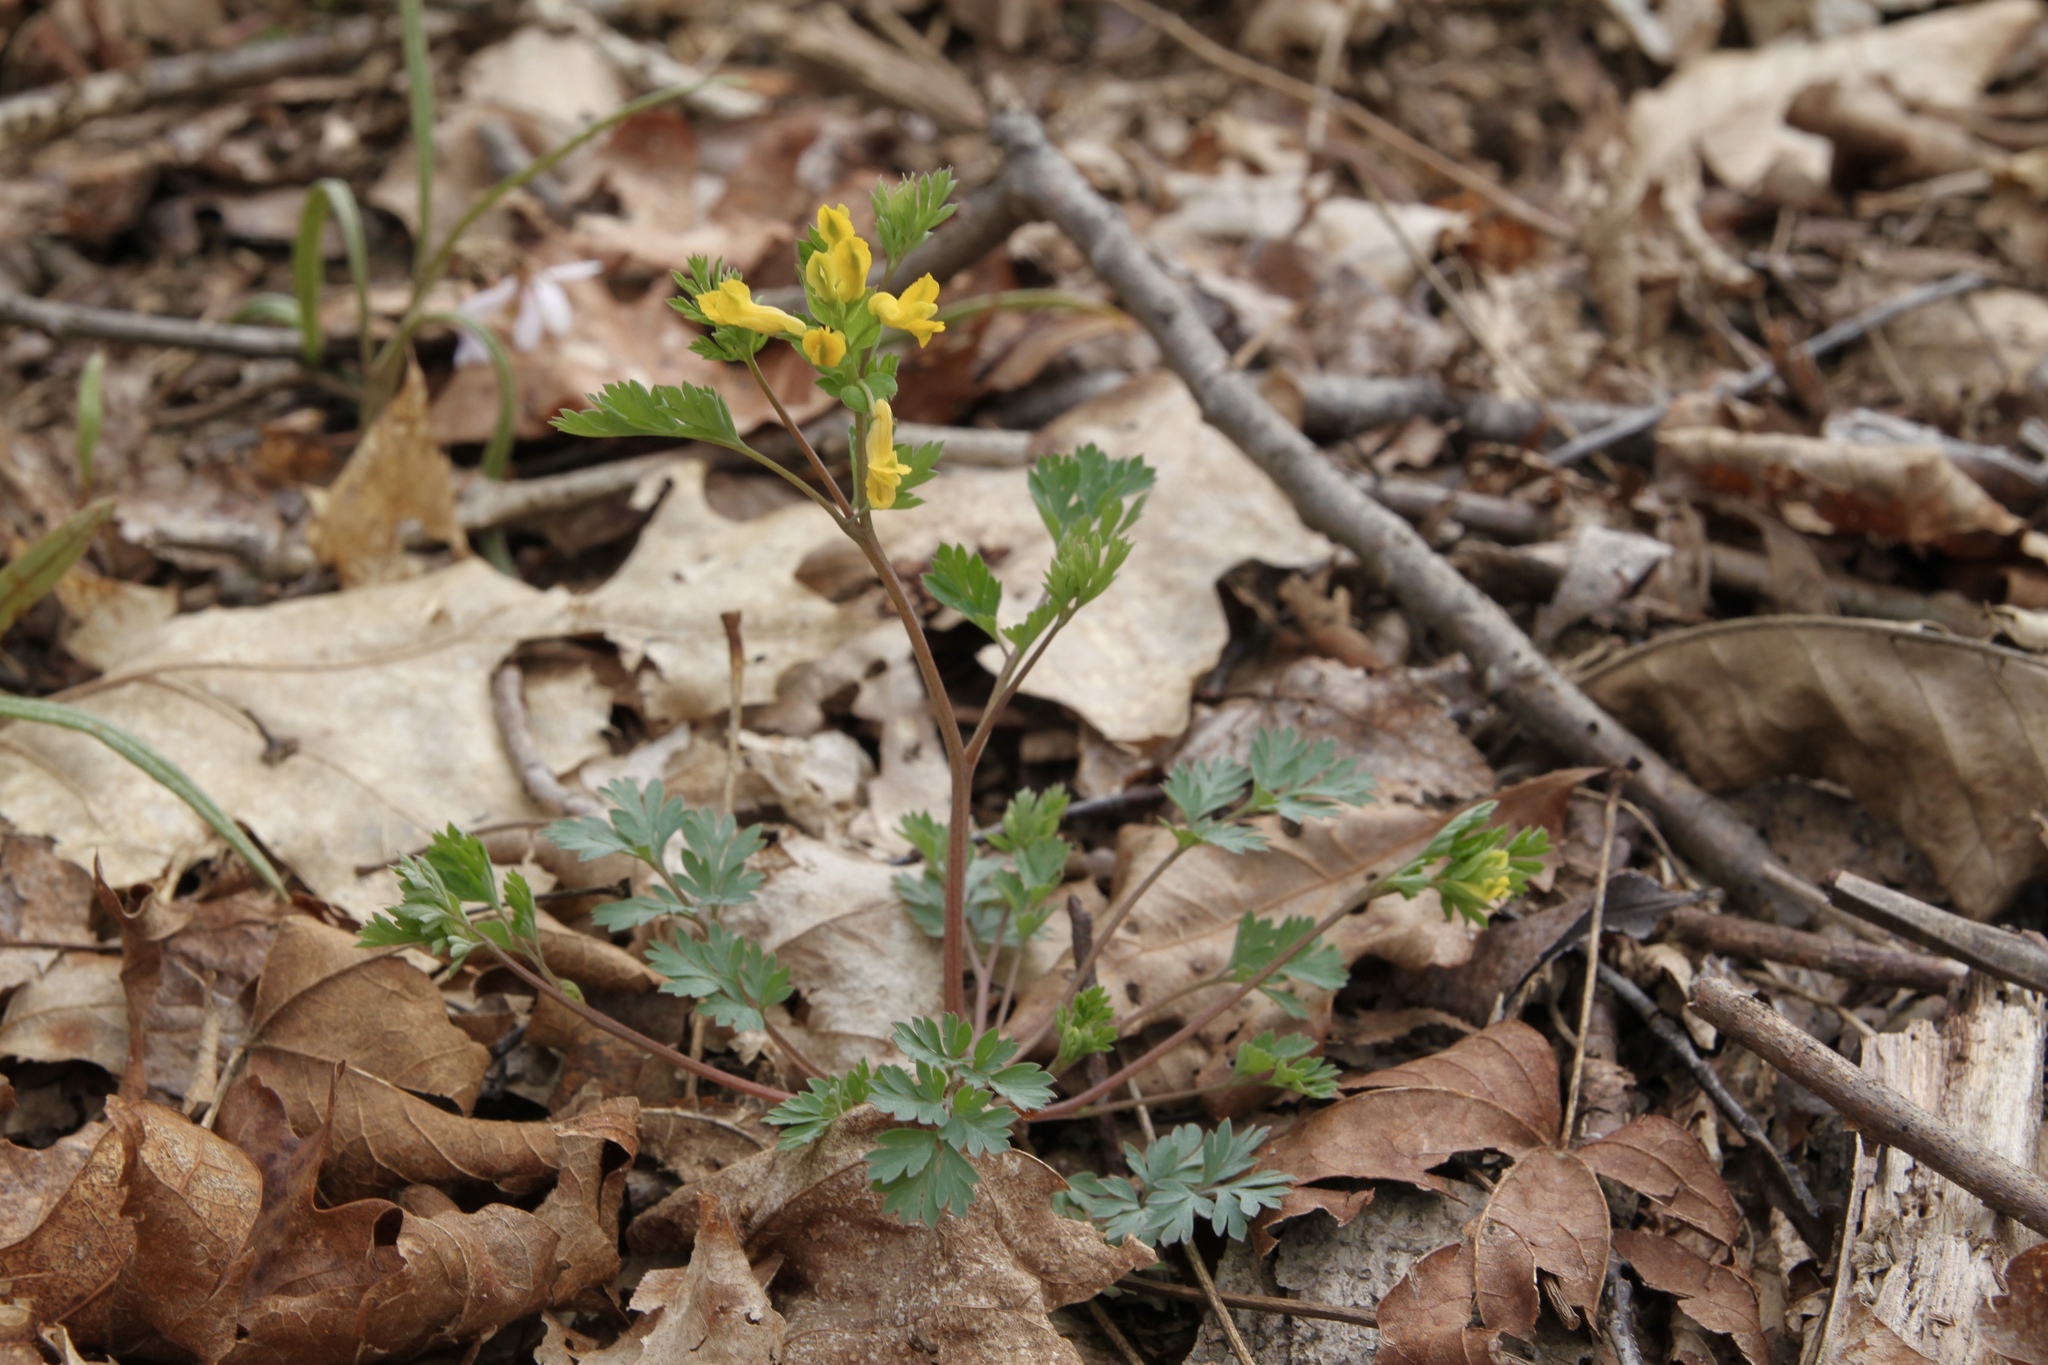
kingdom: Plantae
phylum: Tracheophyta
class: Magnoliopsida
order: Ranunculales
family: Papaveraceae
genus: Corydalis
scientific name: Corydalis flavula
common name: Yellow corydalis
